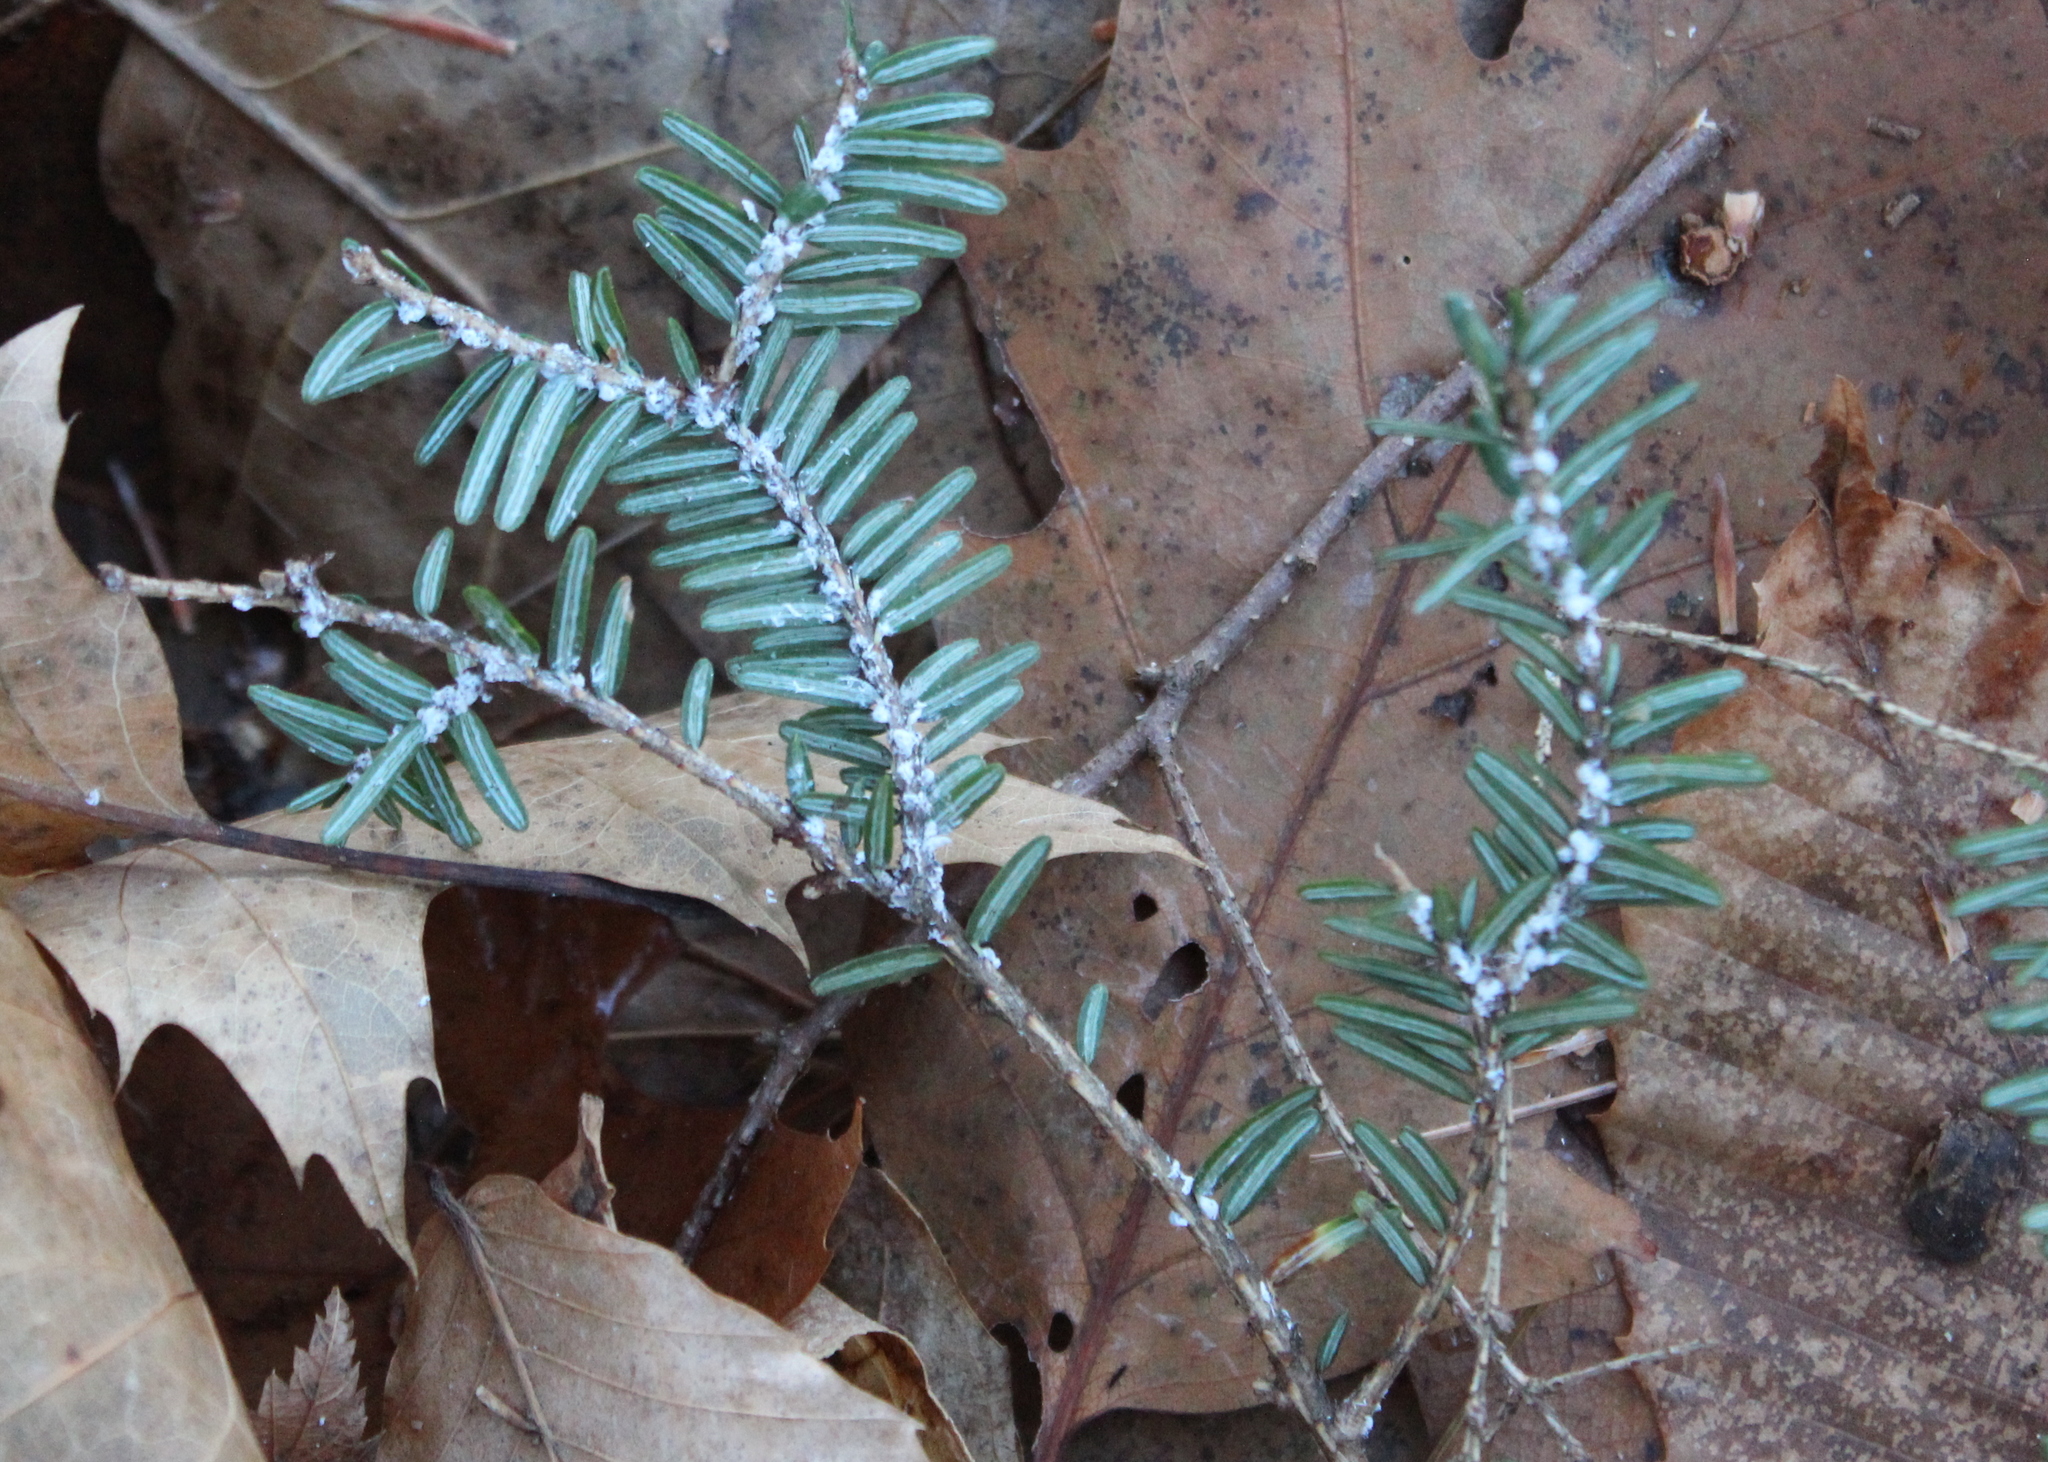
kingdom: Animalia
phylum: Arthropoda
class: Insecta
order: Hemiptera
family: Adelgidae
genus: Adelges
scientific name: Adelges tsugae
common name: Hemlock woolly adelgid
